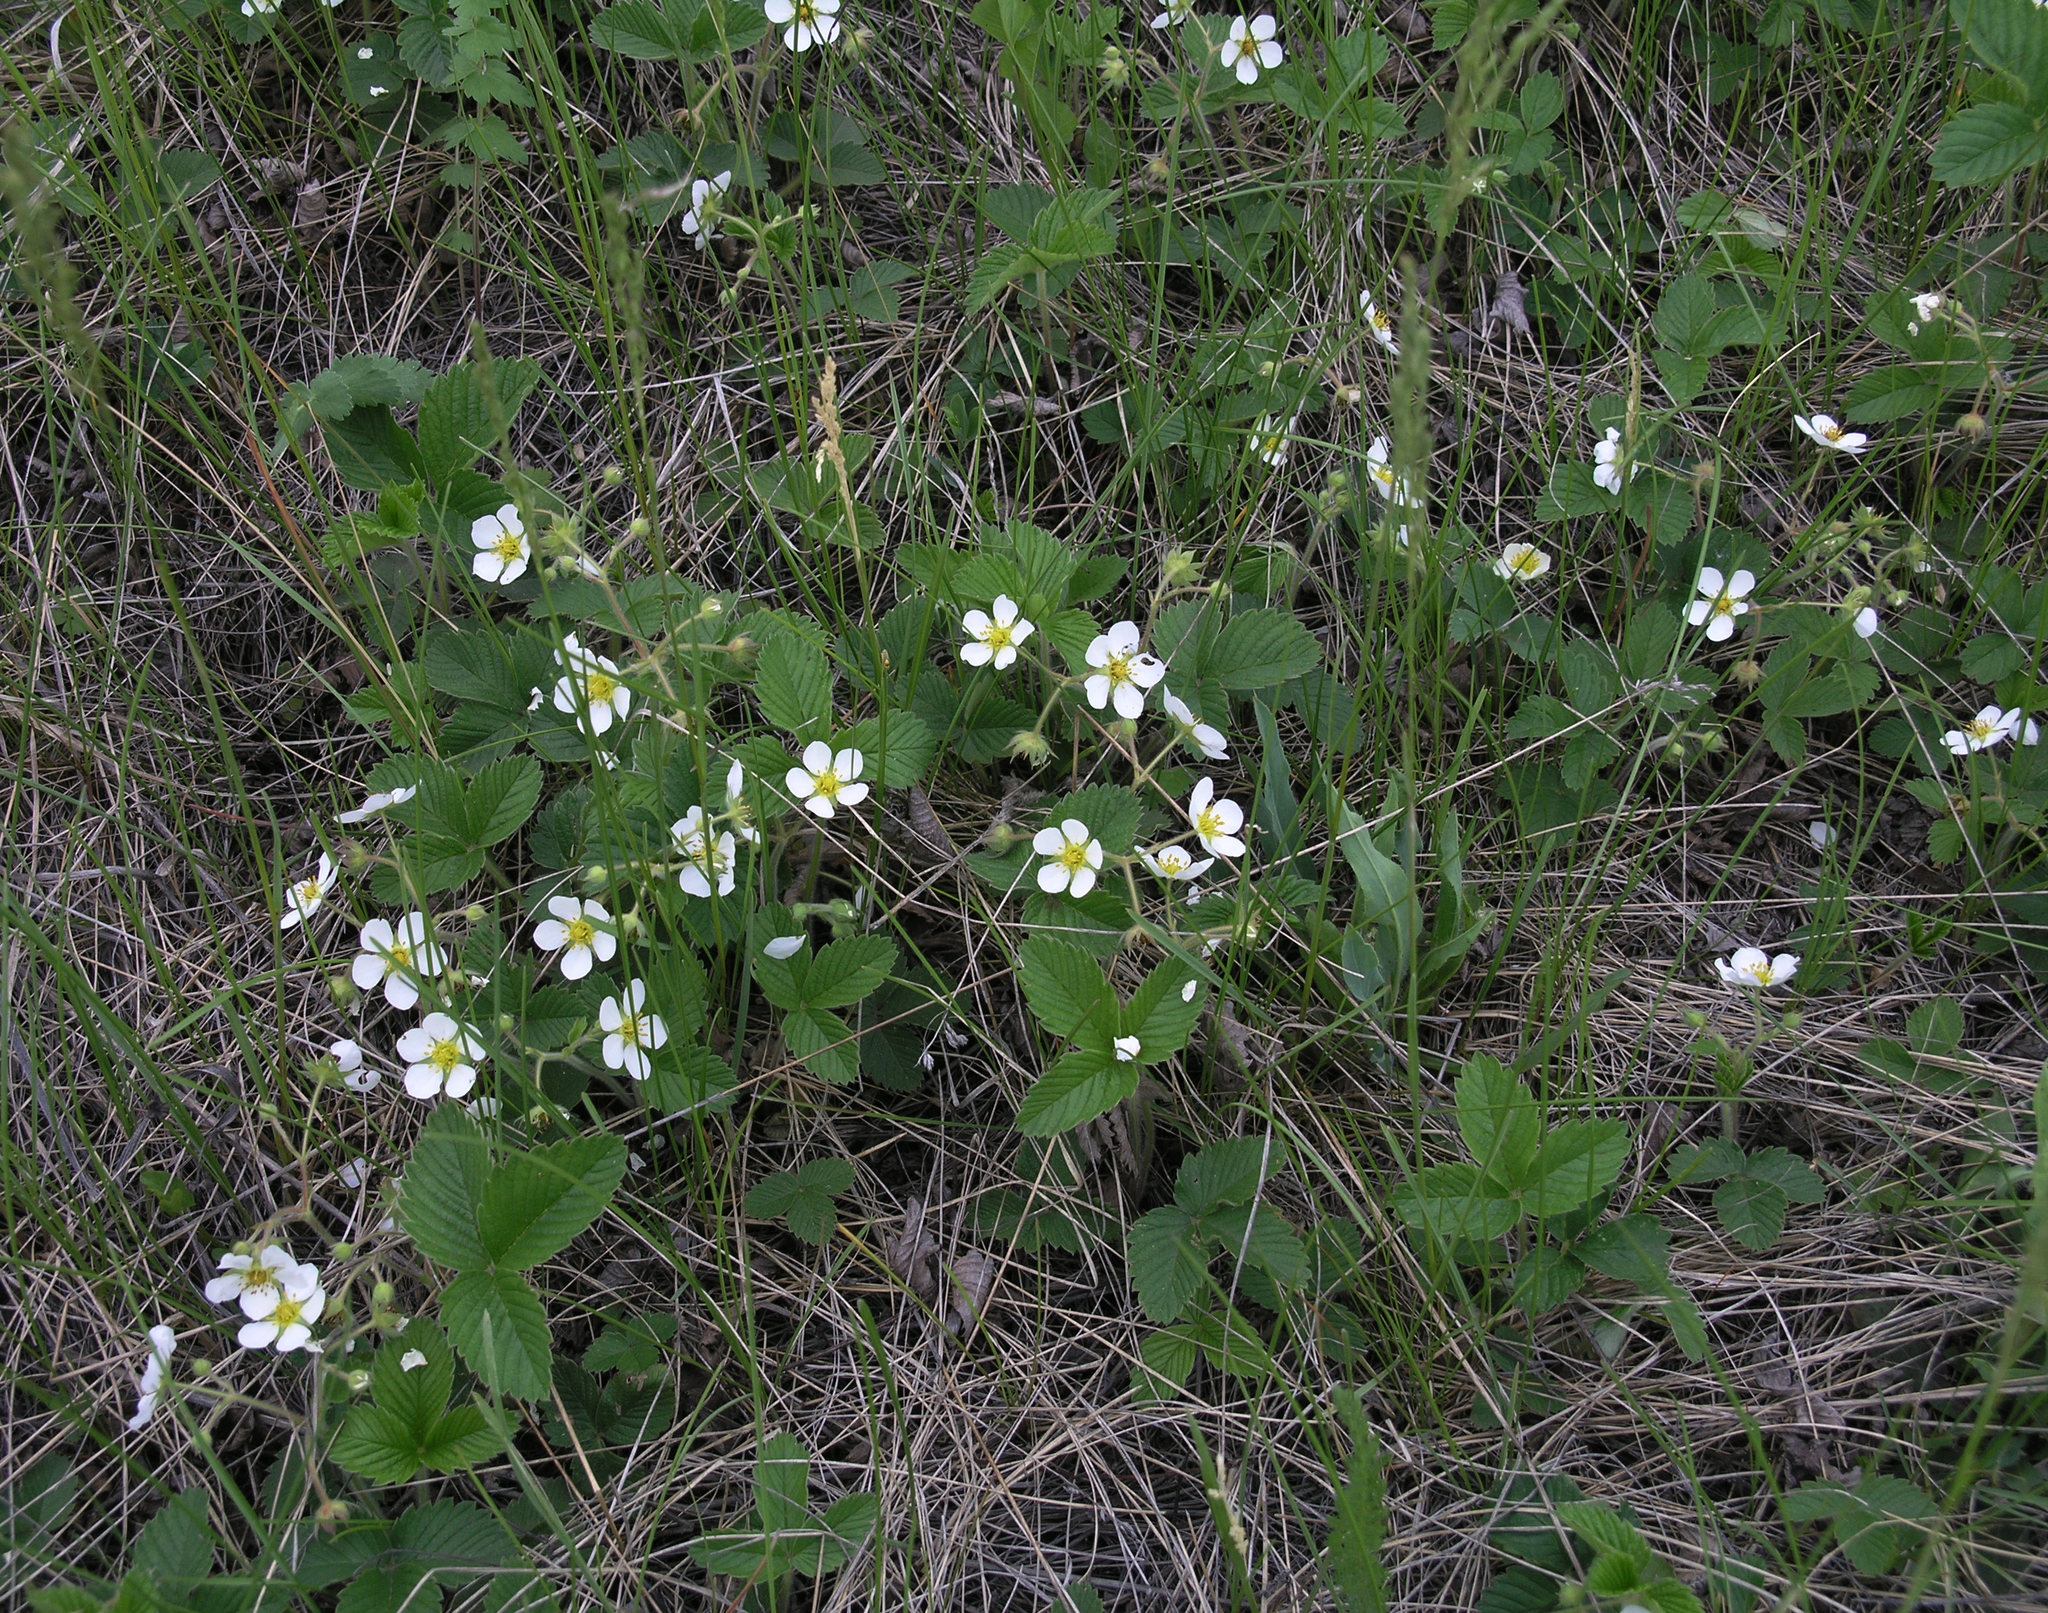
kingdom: Plantae
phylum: Tracheophyta
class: Magnoliopsida
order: Rosales
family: Rosaceae
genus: Fragaria
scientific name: Fragaria viridis
